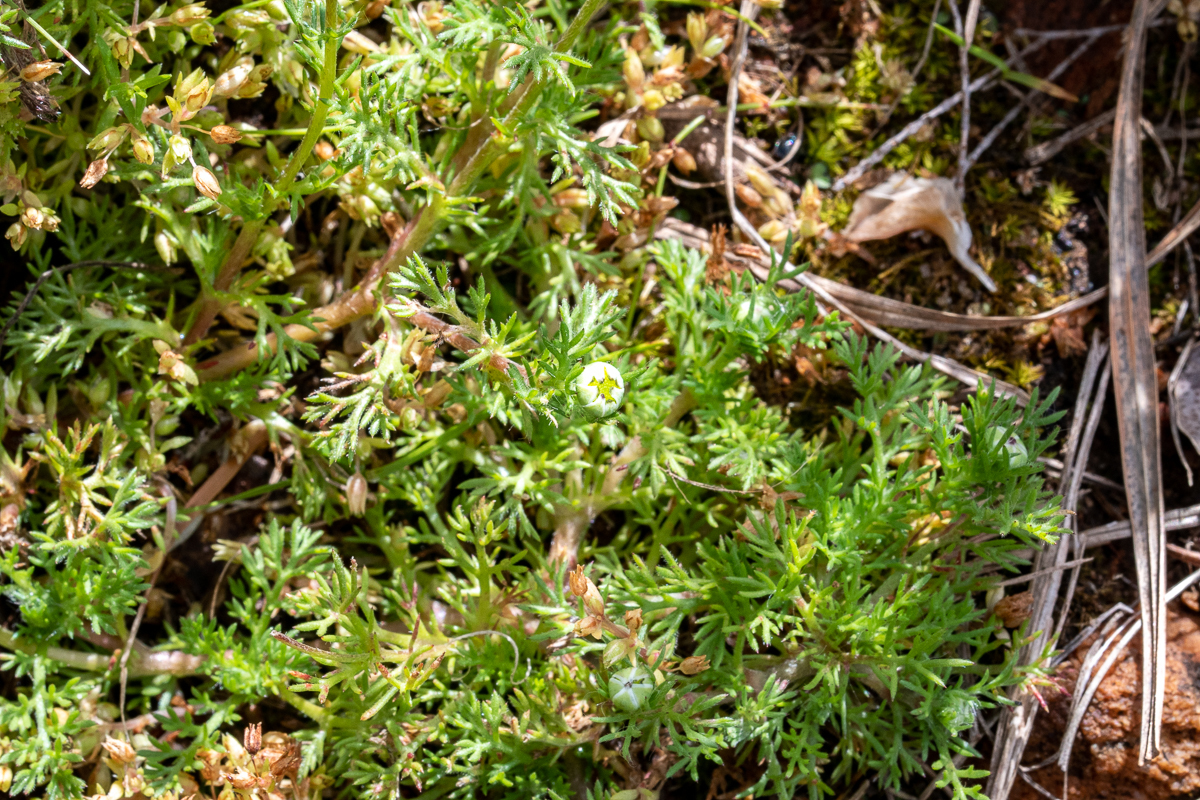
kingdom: Plantae
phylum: Tracheophyta
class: Magnoliopsida
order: Asterales
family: Asteraceae
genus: Cotula
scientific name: Cotula turbinata
